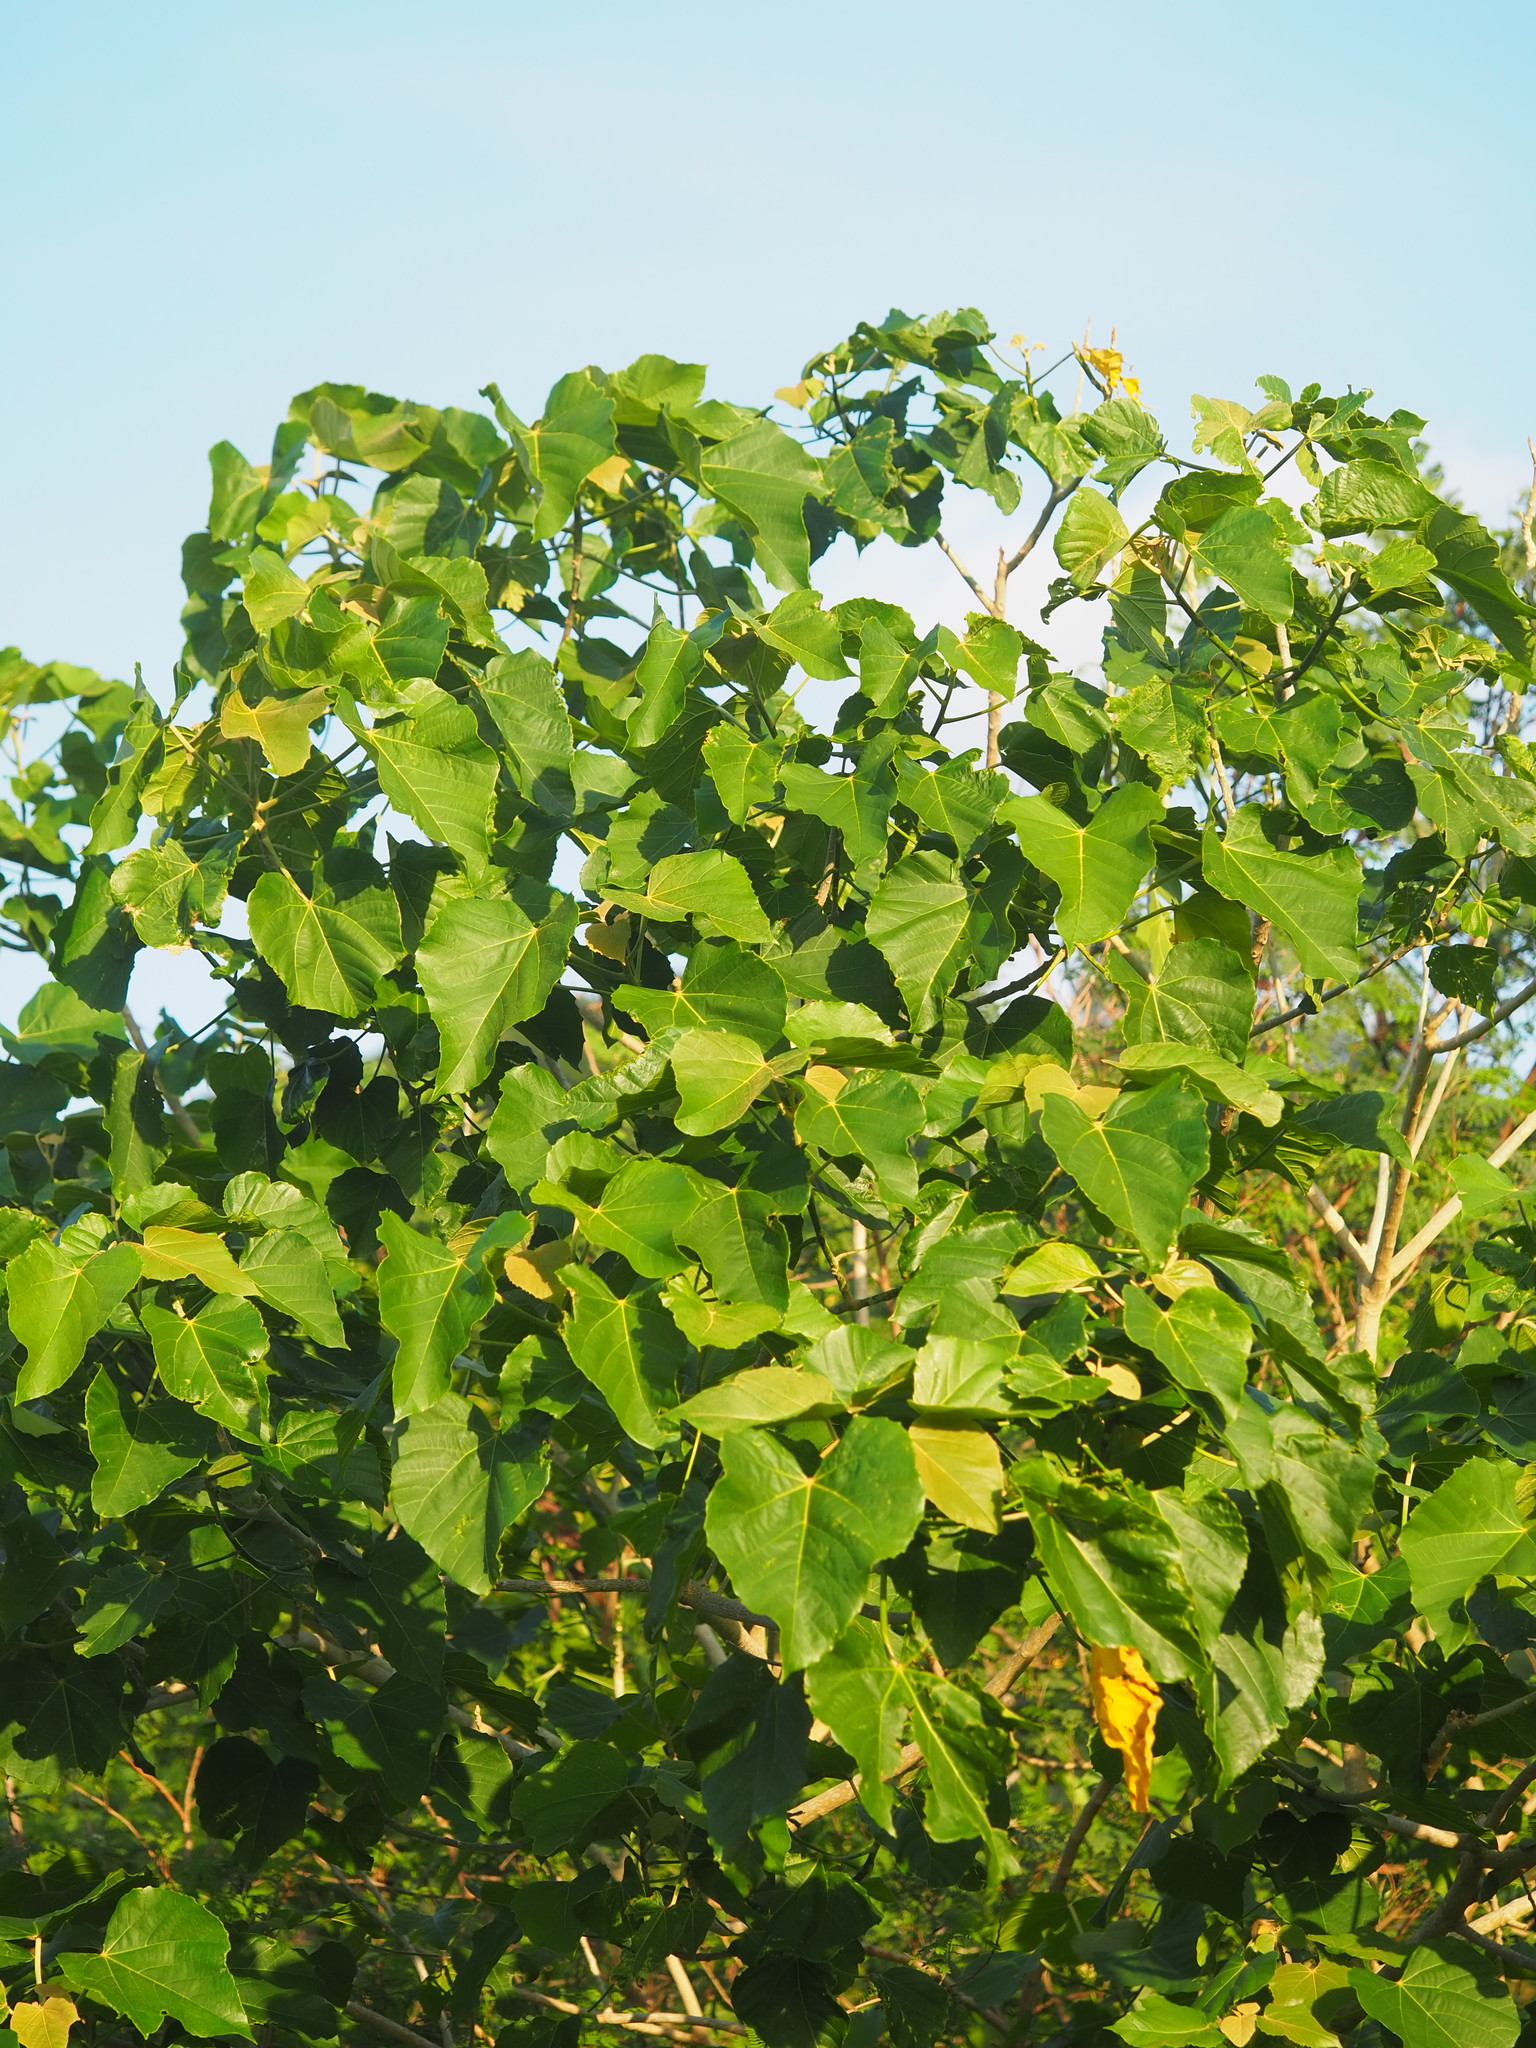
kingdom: Plantae
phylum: Tracheophyta
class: Magnoliopsida
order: Malpighiales
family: Euphorbiaceae
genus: Melanolepis
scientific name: Melanolepis multiglandulosa
